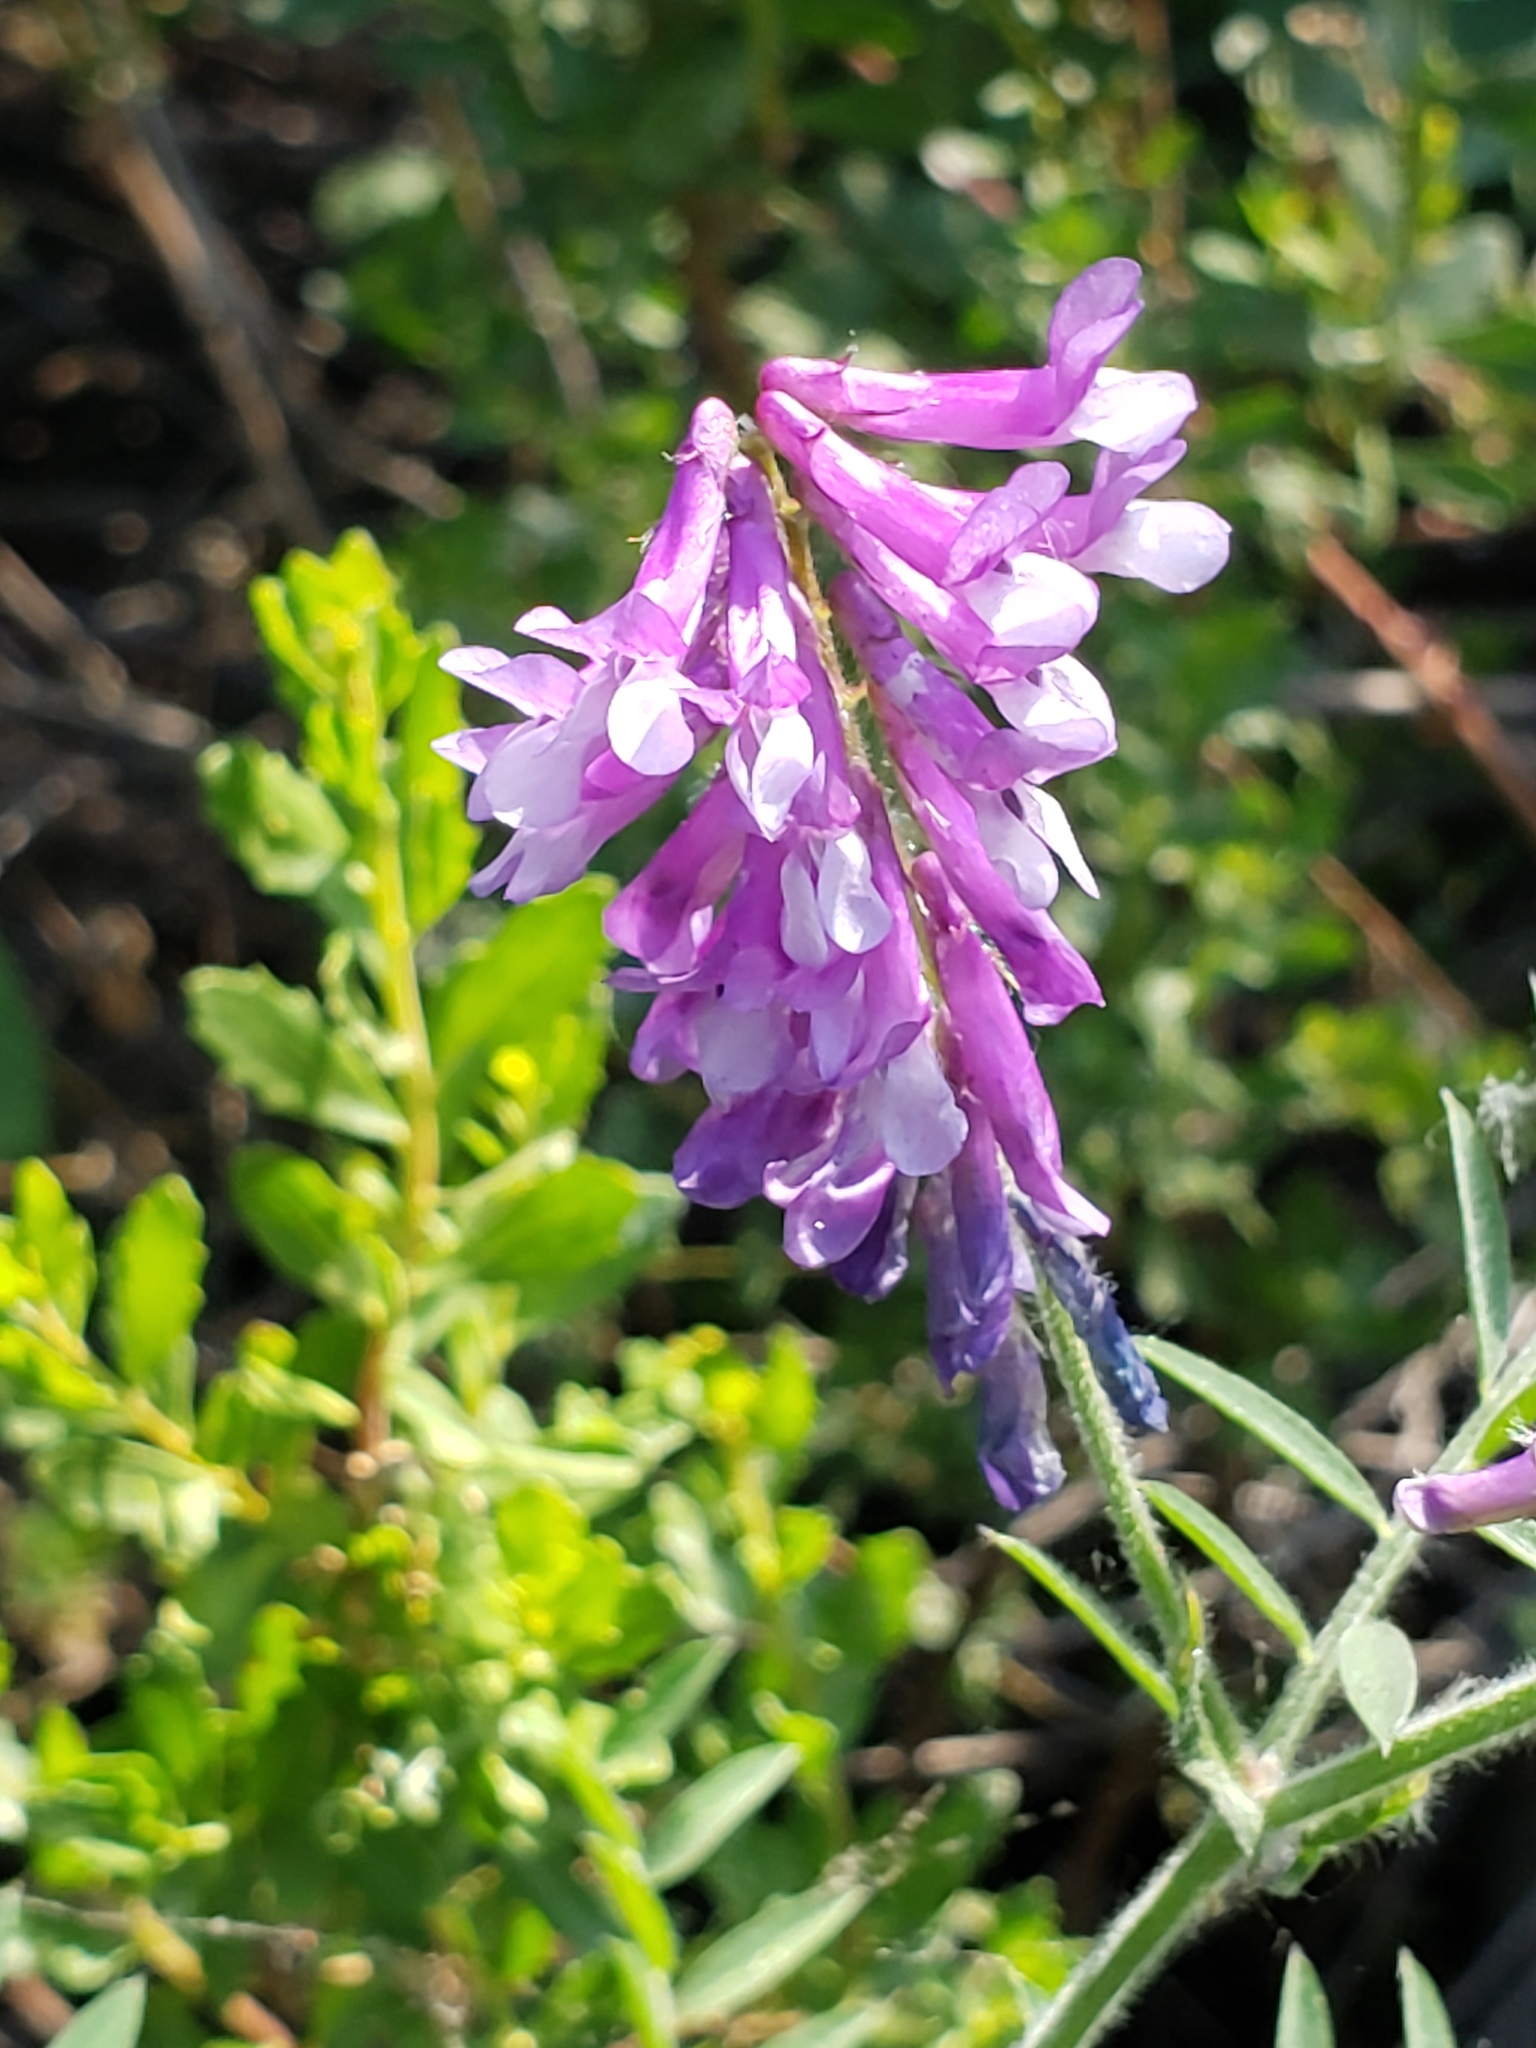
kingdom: Plantae
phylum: Tracheophyta
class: Magnoliopsida
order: Fabales
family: Fabaceae
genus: Vicia
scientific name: Vicia villosa
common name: Fodder vetch
